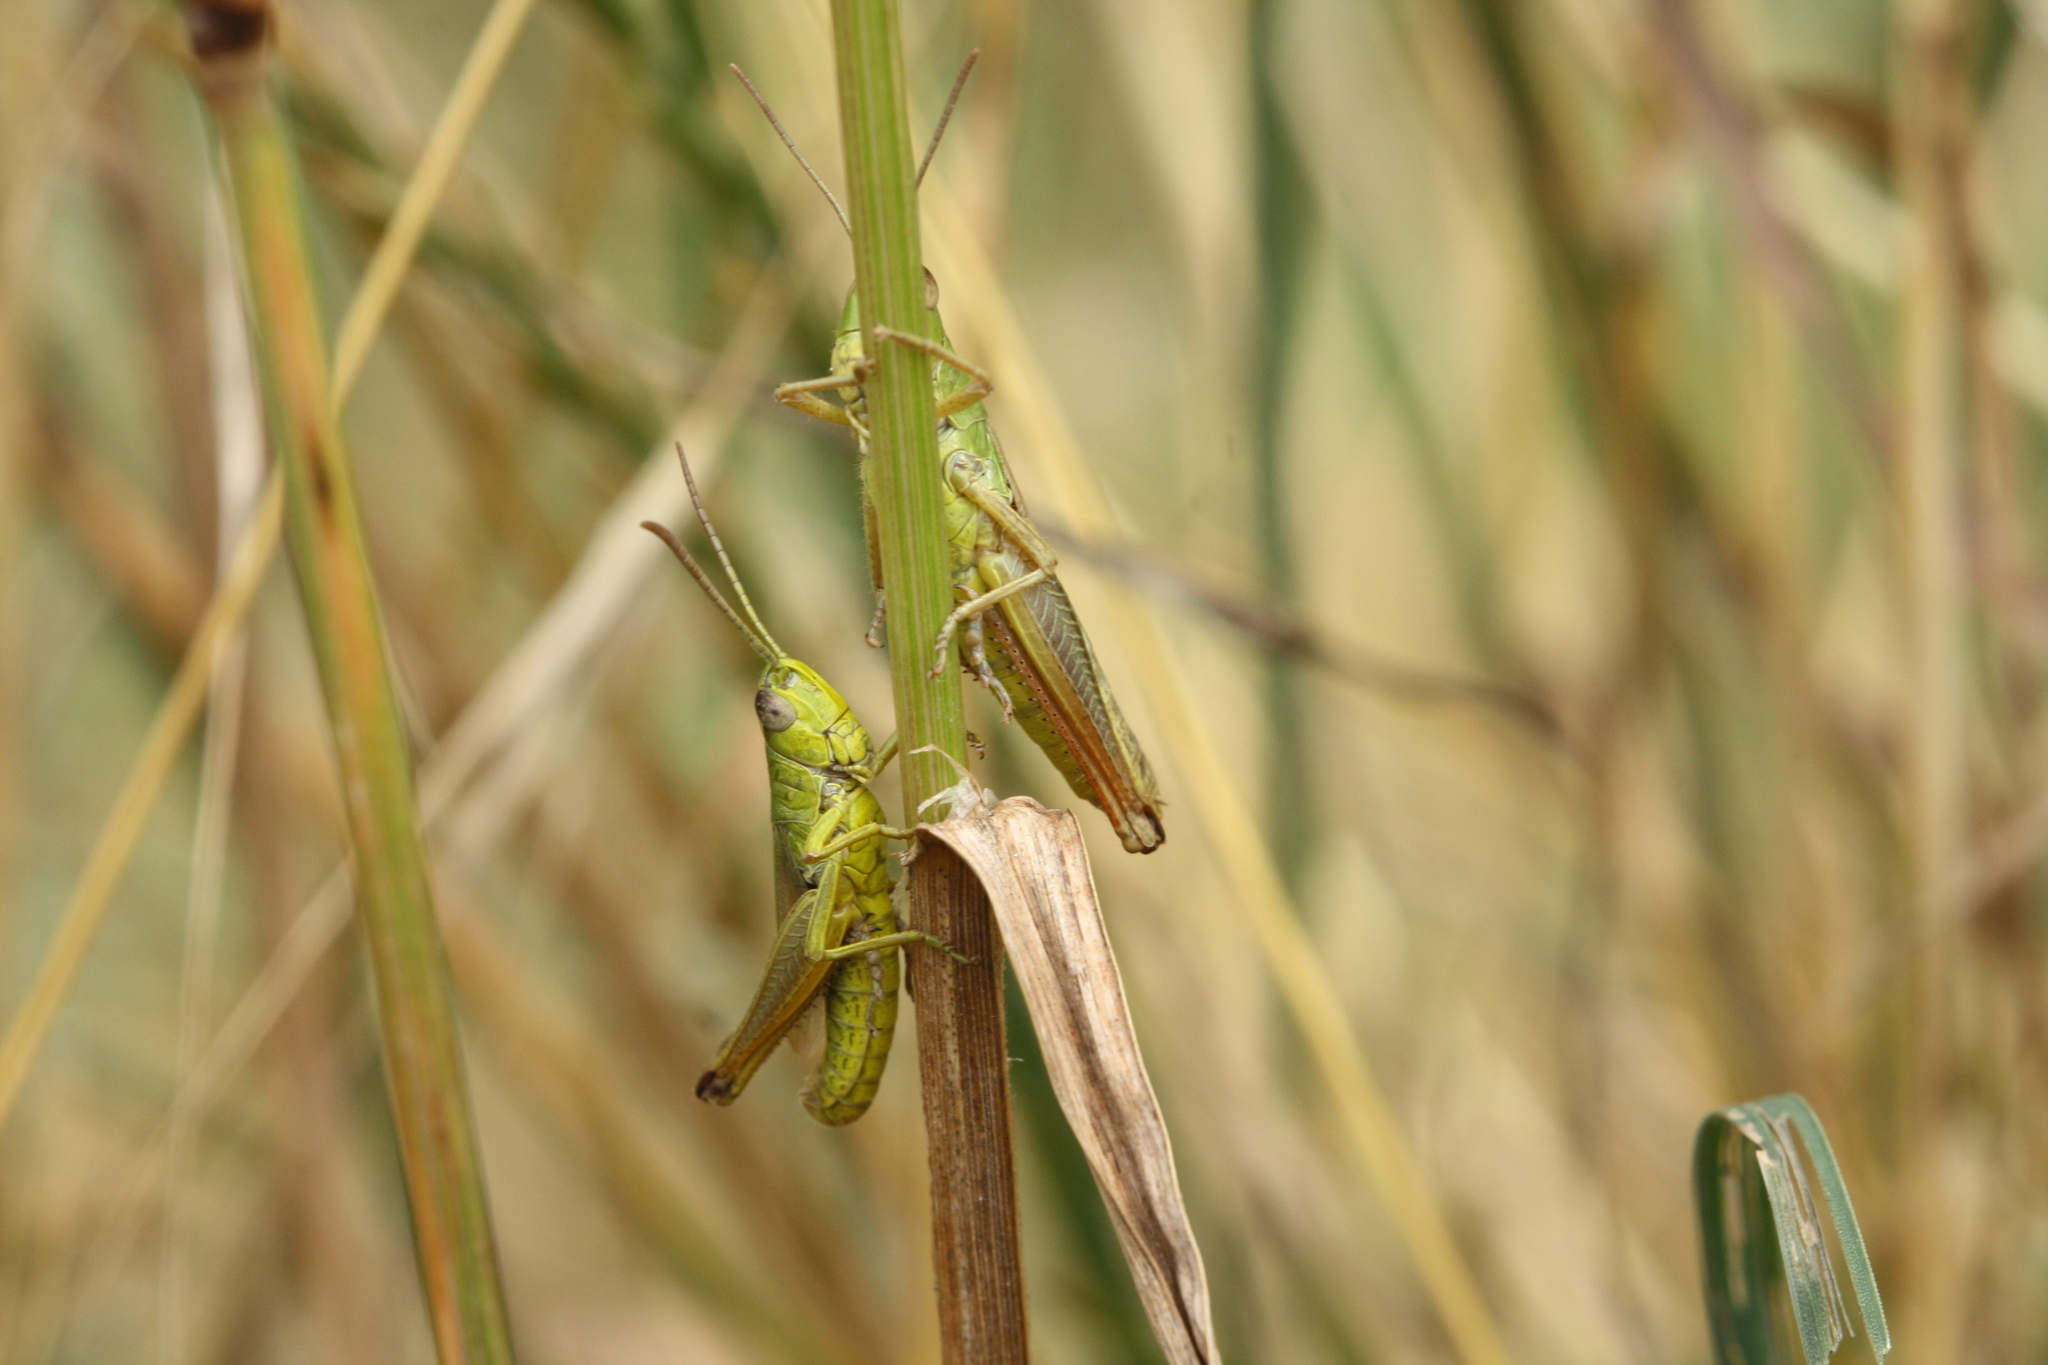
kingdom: Animalia
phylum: Arthropoda
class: Insecta
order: Orthoptera
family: Acrididae
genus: Pseudochorthippus
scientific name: Pseudochorthippus parallelus
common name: Meadow grasshopper
